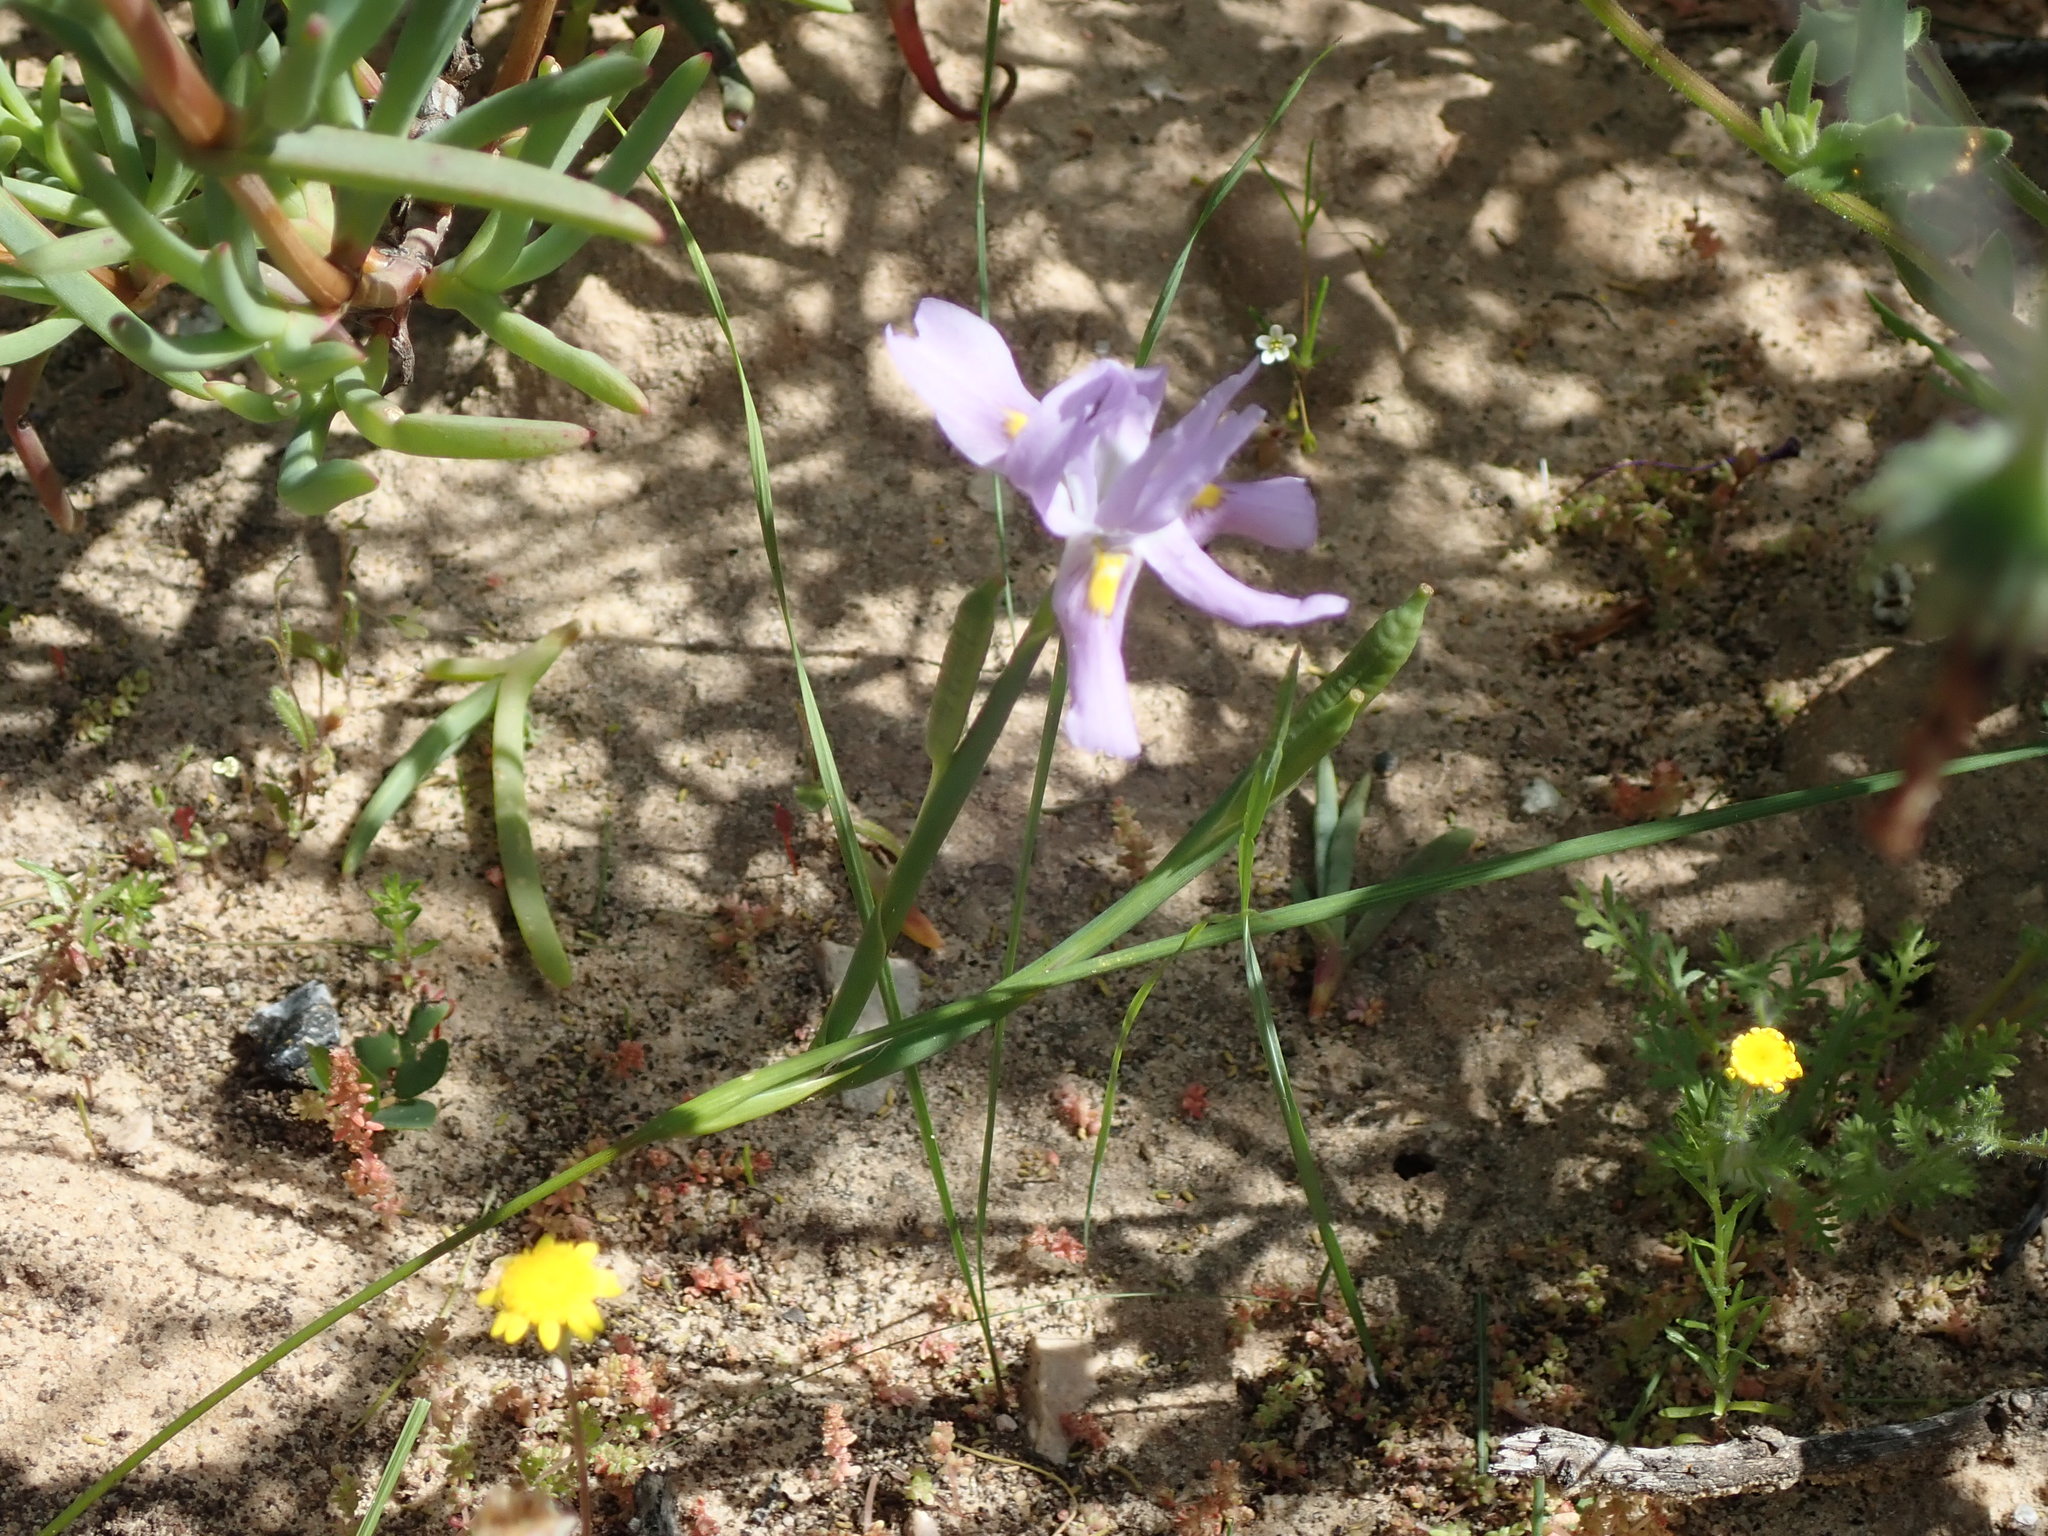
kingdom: Plantae
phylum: Tracheophyta
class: Liliopsida
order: Asparagales
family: Iridaceae
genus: Moraea
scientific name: Moraea macrocarpa
